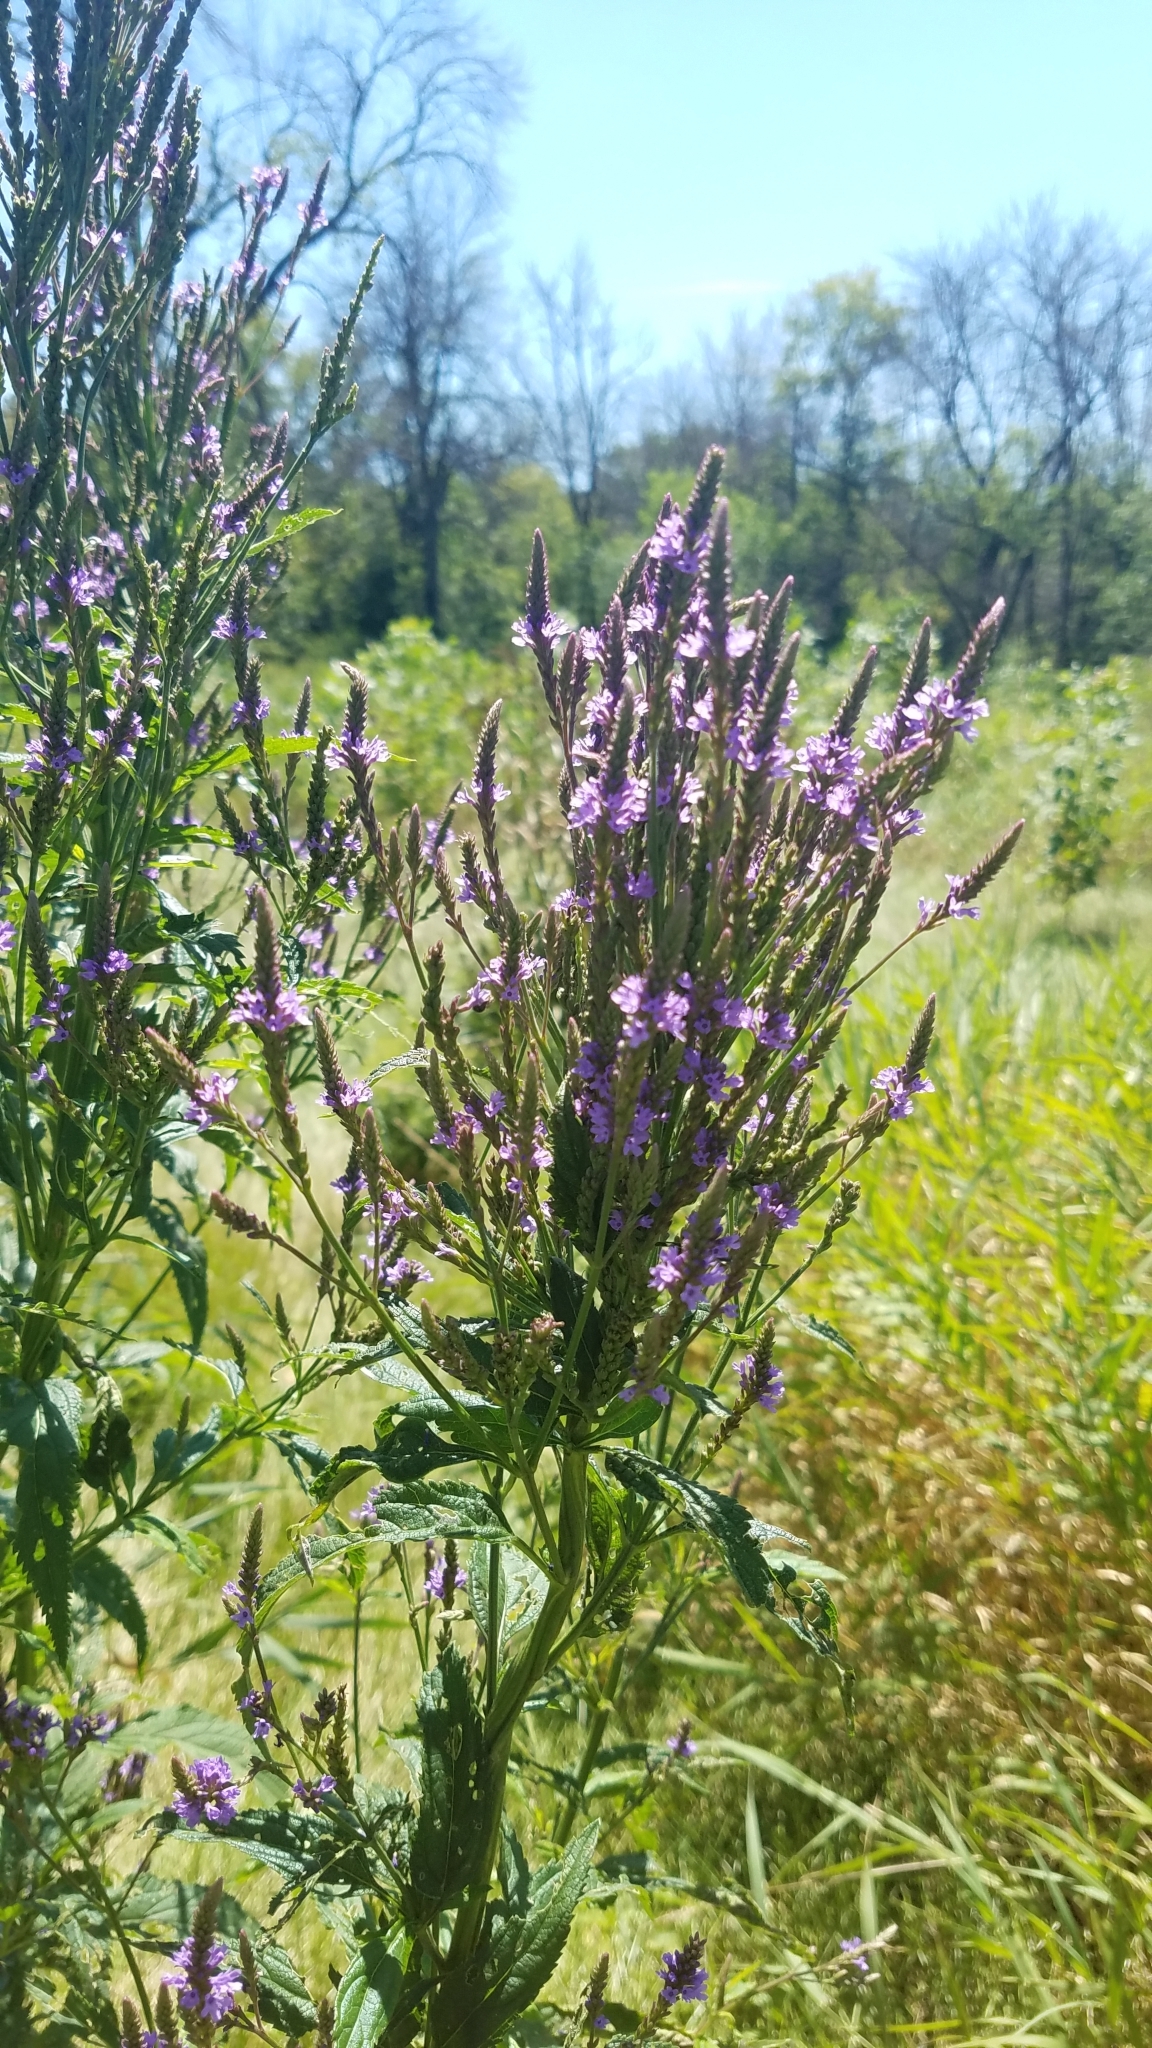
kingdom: Plantae
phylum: Tracheophyta
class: Magnoliopsida
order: Lamiales
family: Verbenaceae
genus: Verbena
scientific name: Verbena hastata
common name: American blue vervain
